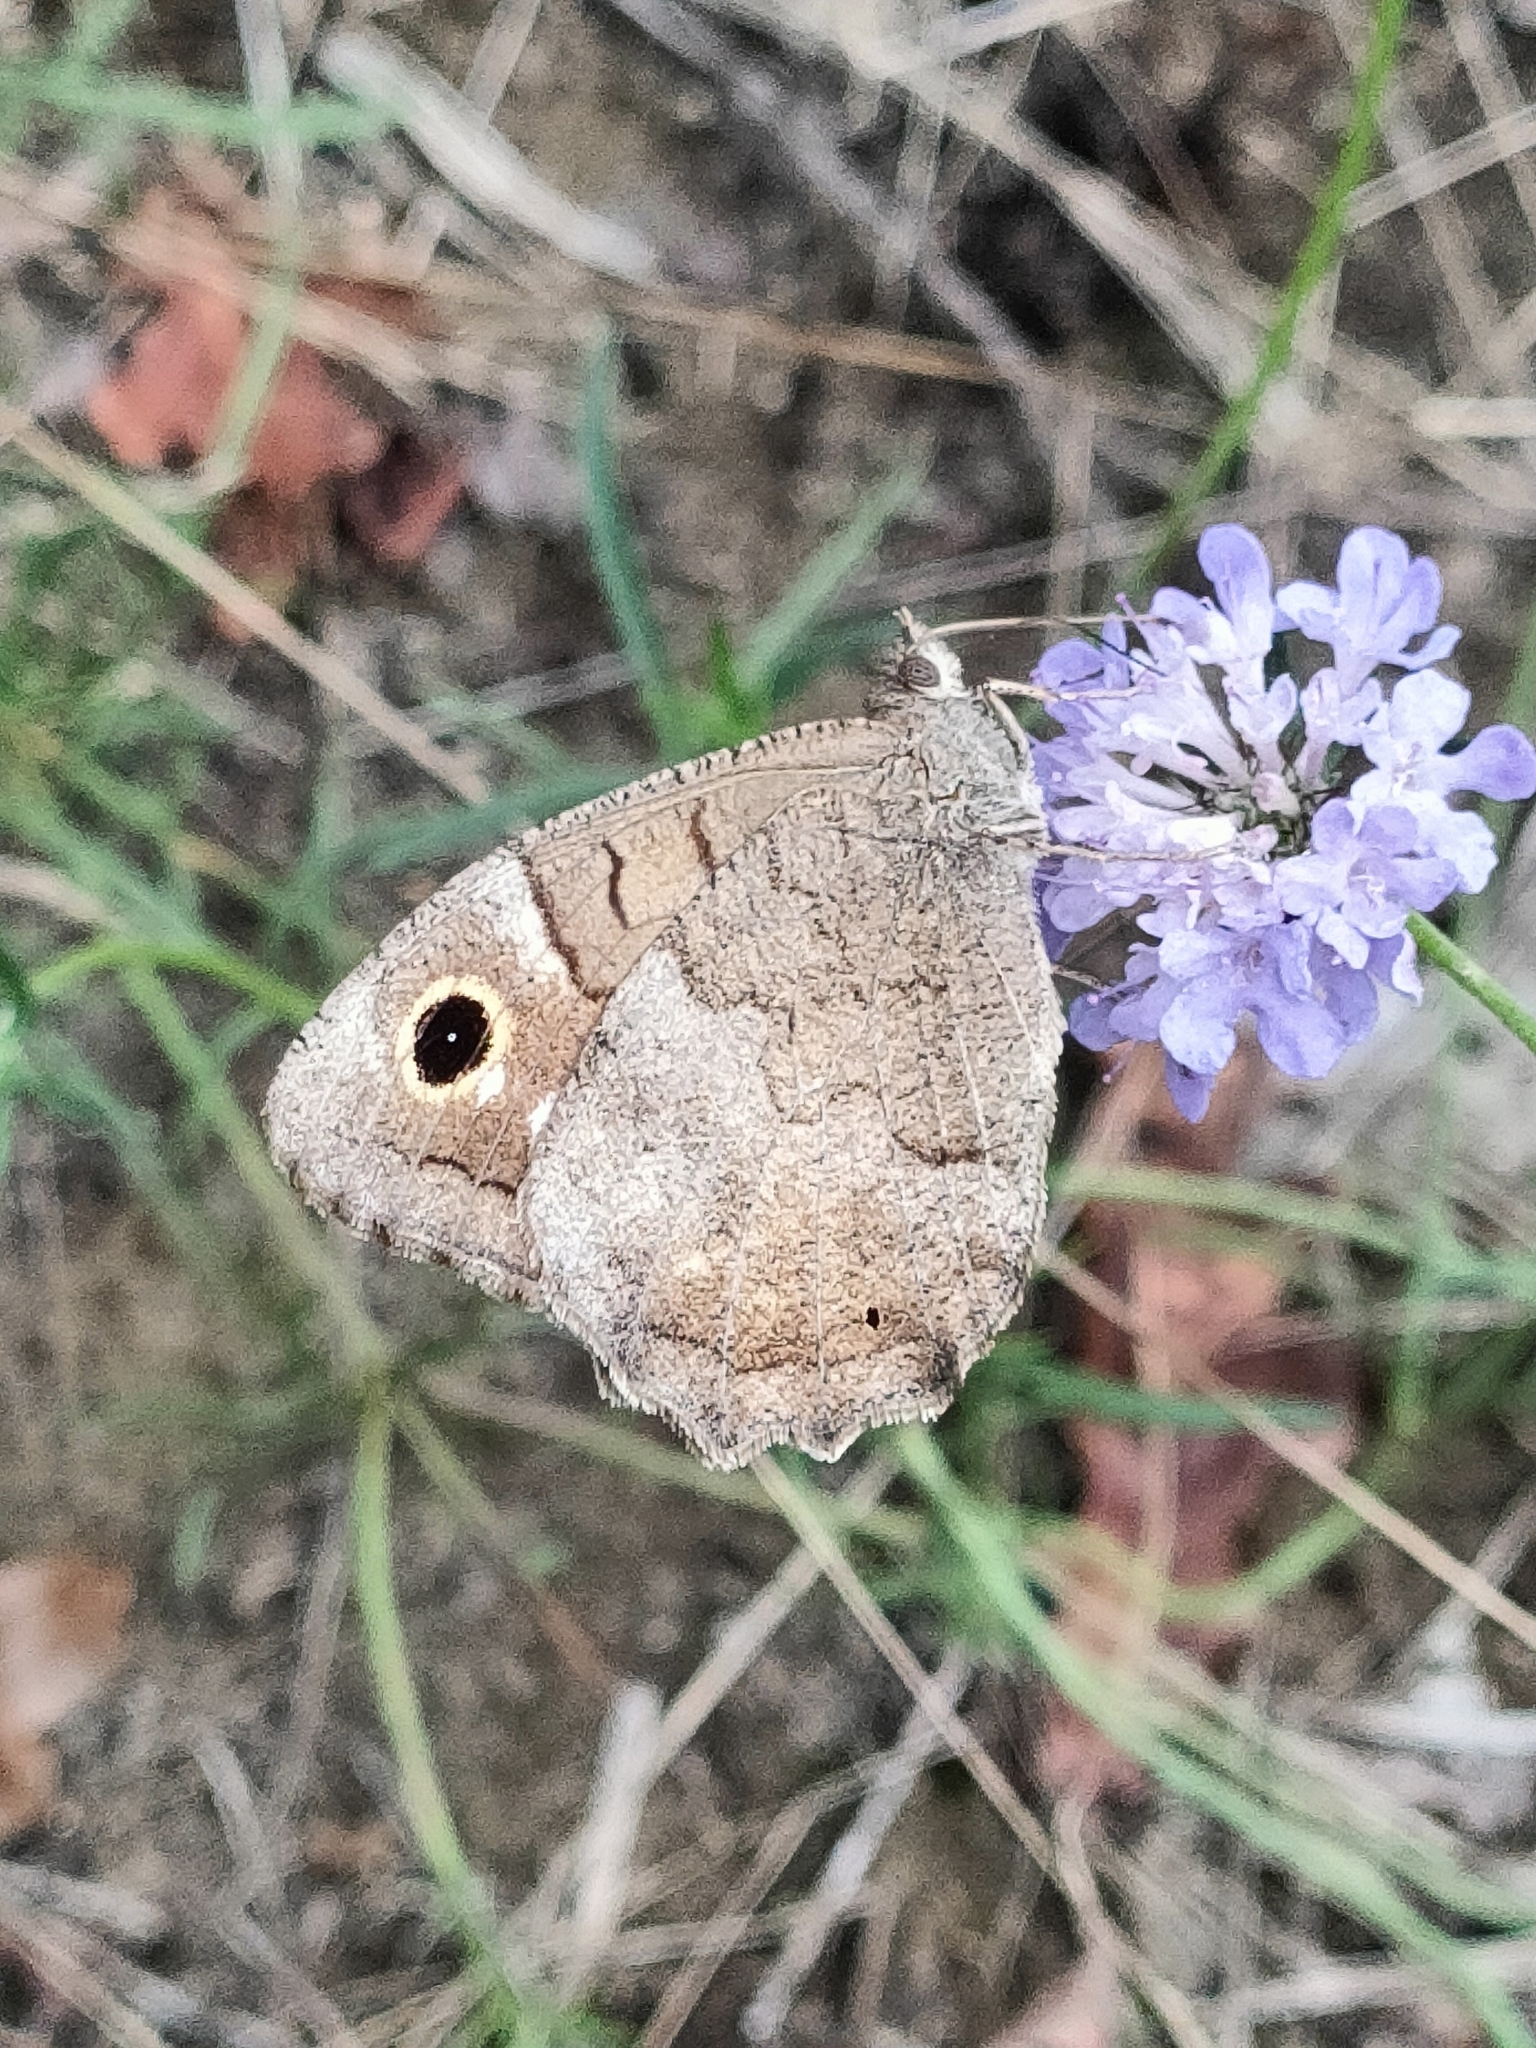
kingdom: Animalia
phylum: Arthropoda
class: Insecta
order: Lepidoptera
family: Nymphalidae
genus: Hipparchia
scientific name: Hipparchia statilinus
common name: Tree grayling
